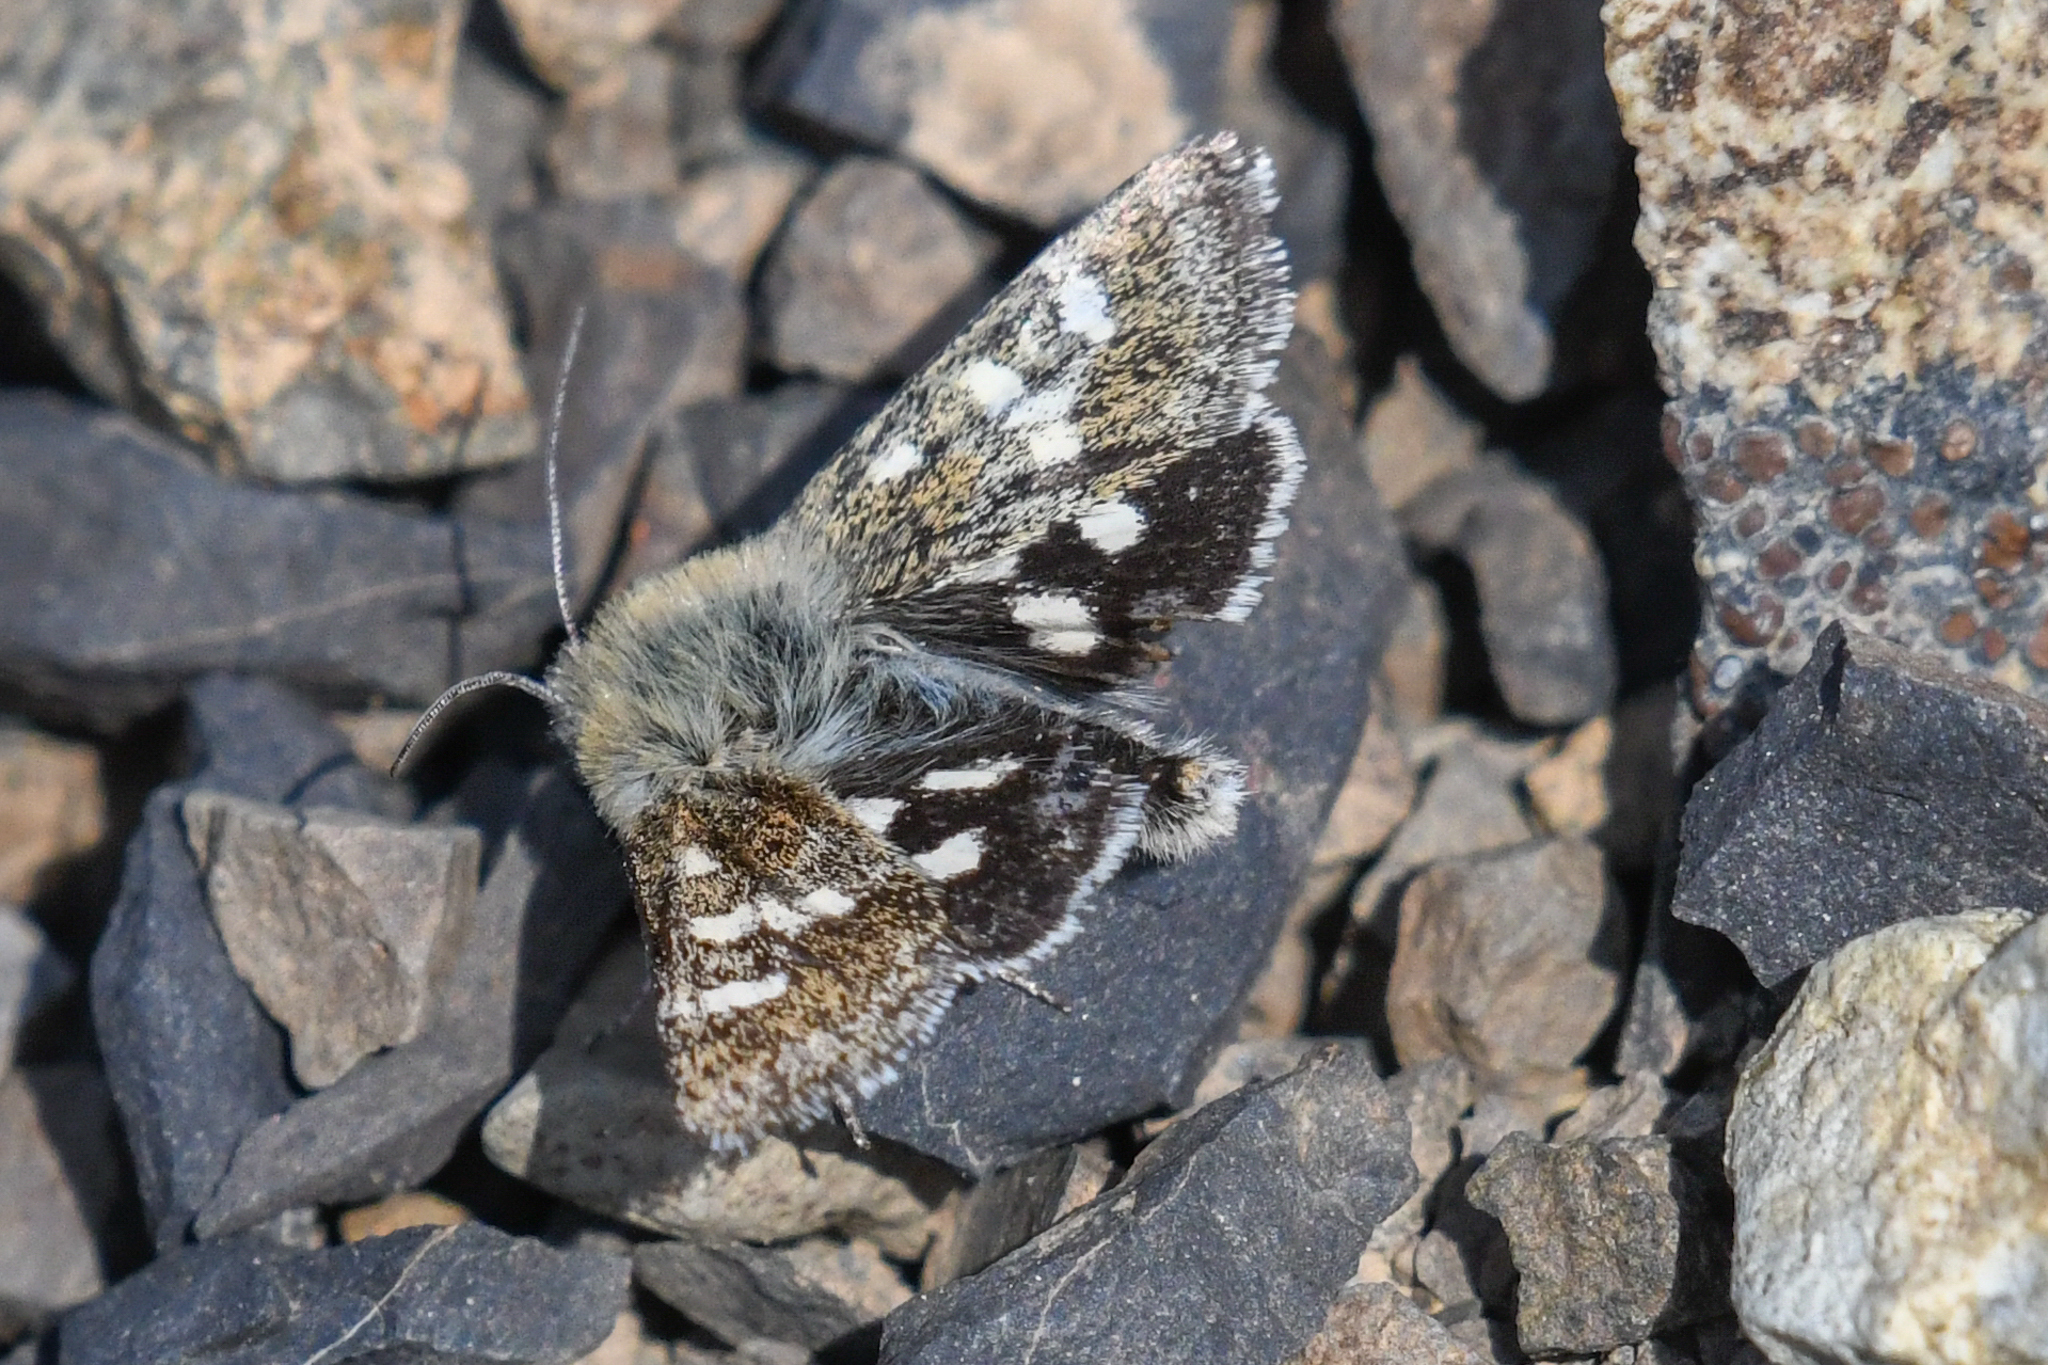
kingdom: Animalia
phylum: Arthropoda
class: Insecta
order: Lepidoptera
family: Noctuidae
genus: Schinia
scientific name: Schinia persimilis
